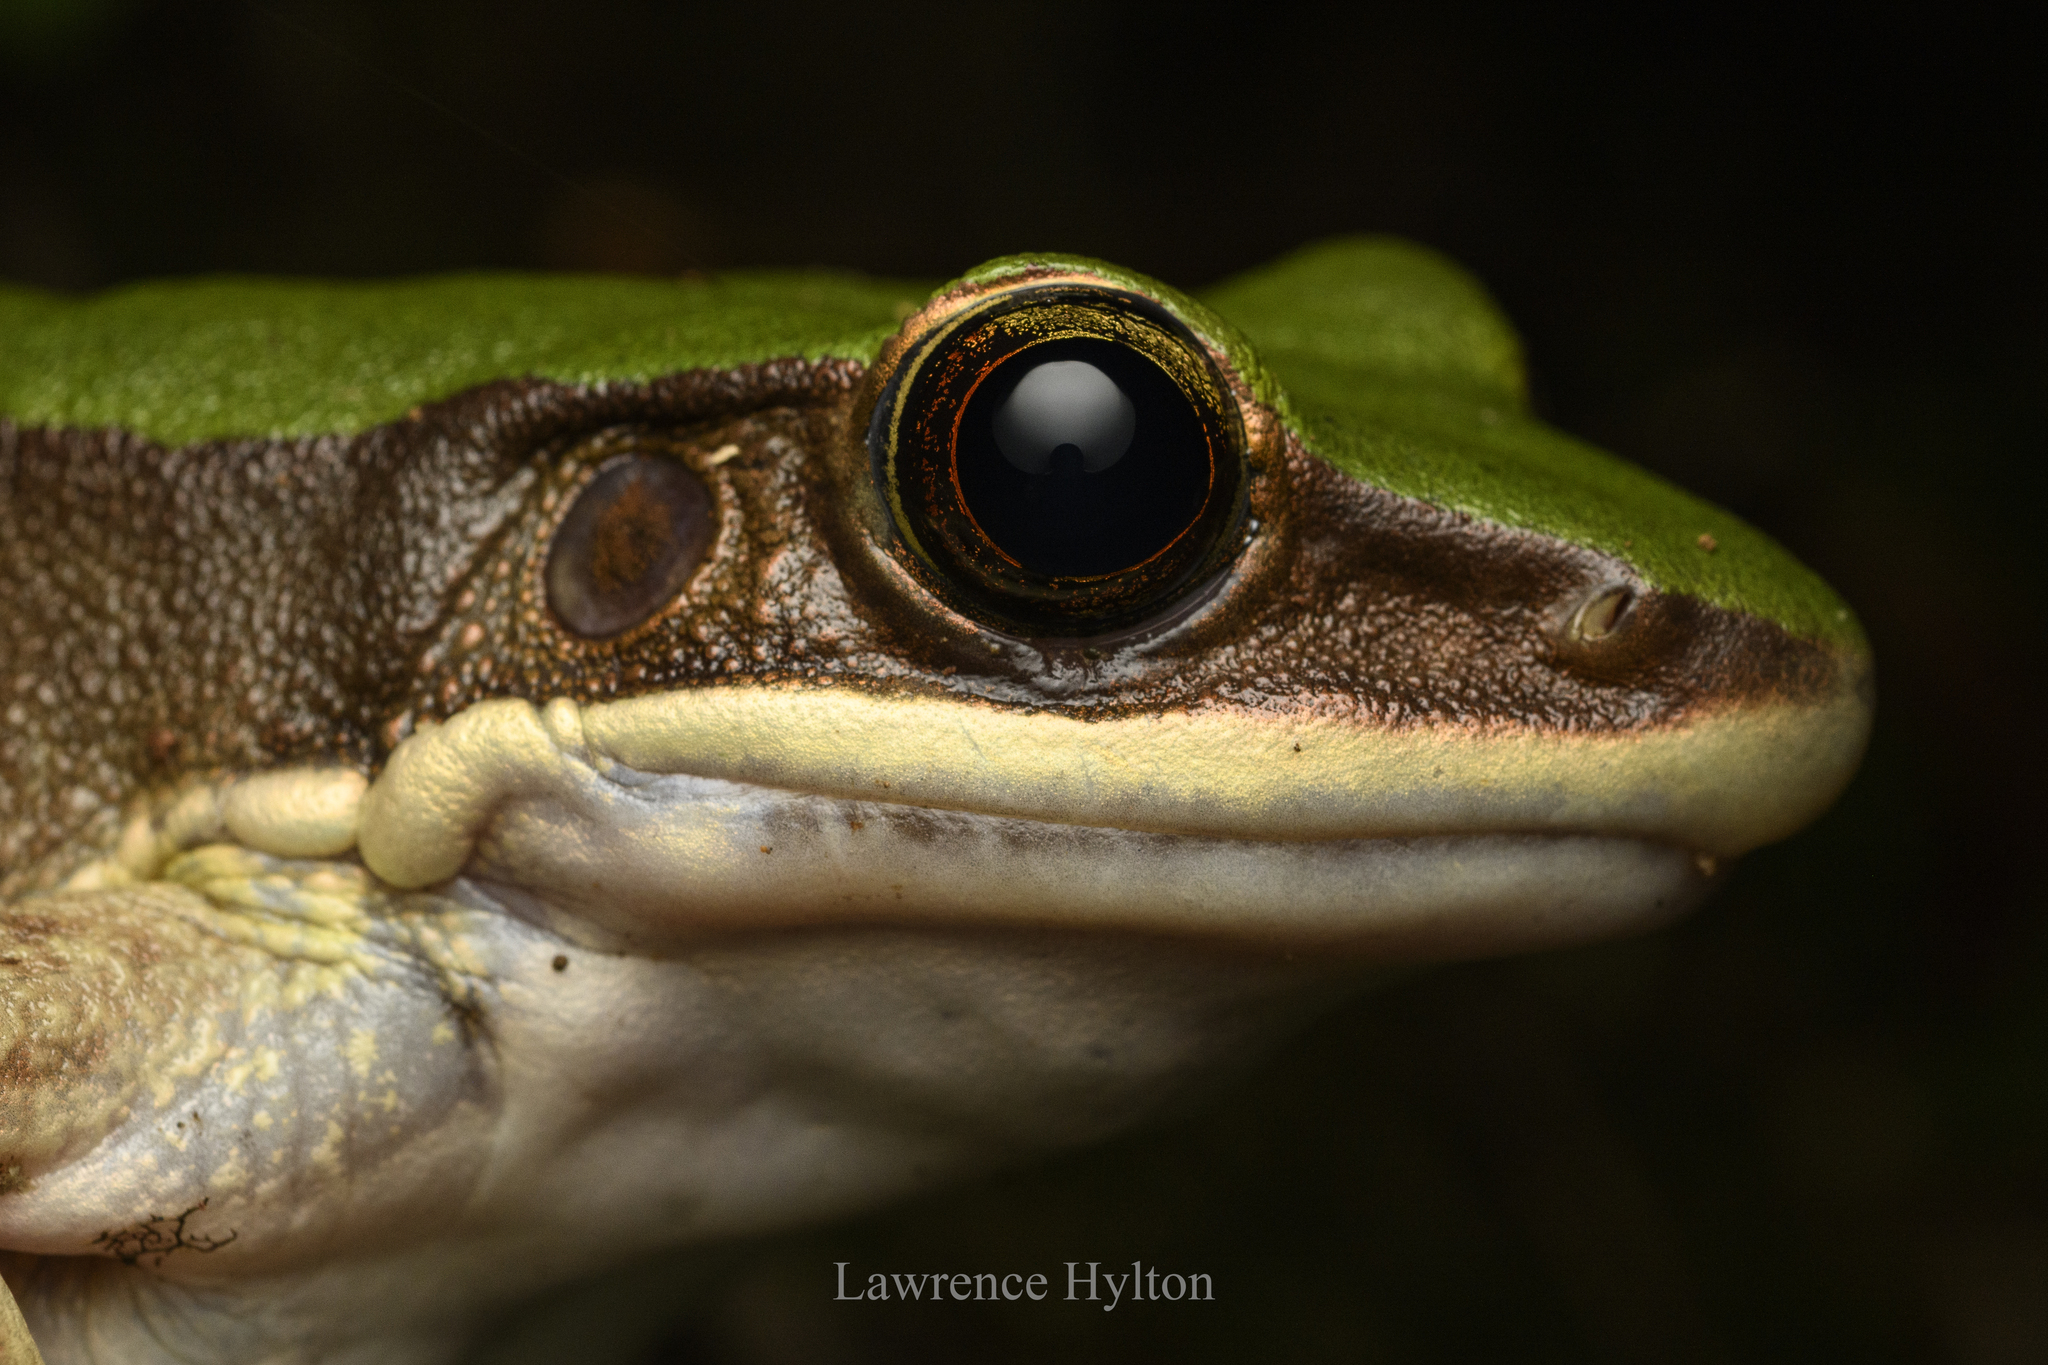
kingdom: Animalia
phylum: Chordata
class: Amphibia
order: Anura
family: Ranidae
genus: Odorrana
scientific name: Odorrana graminea
